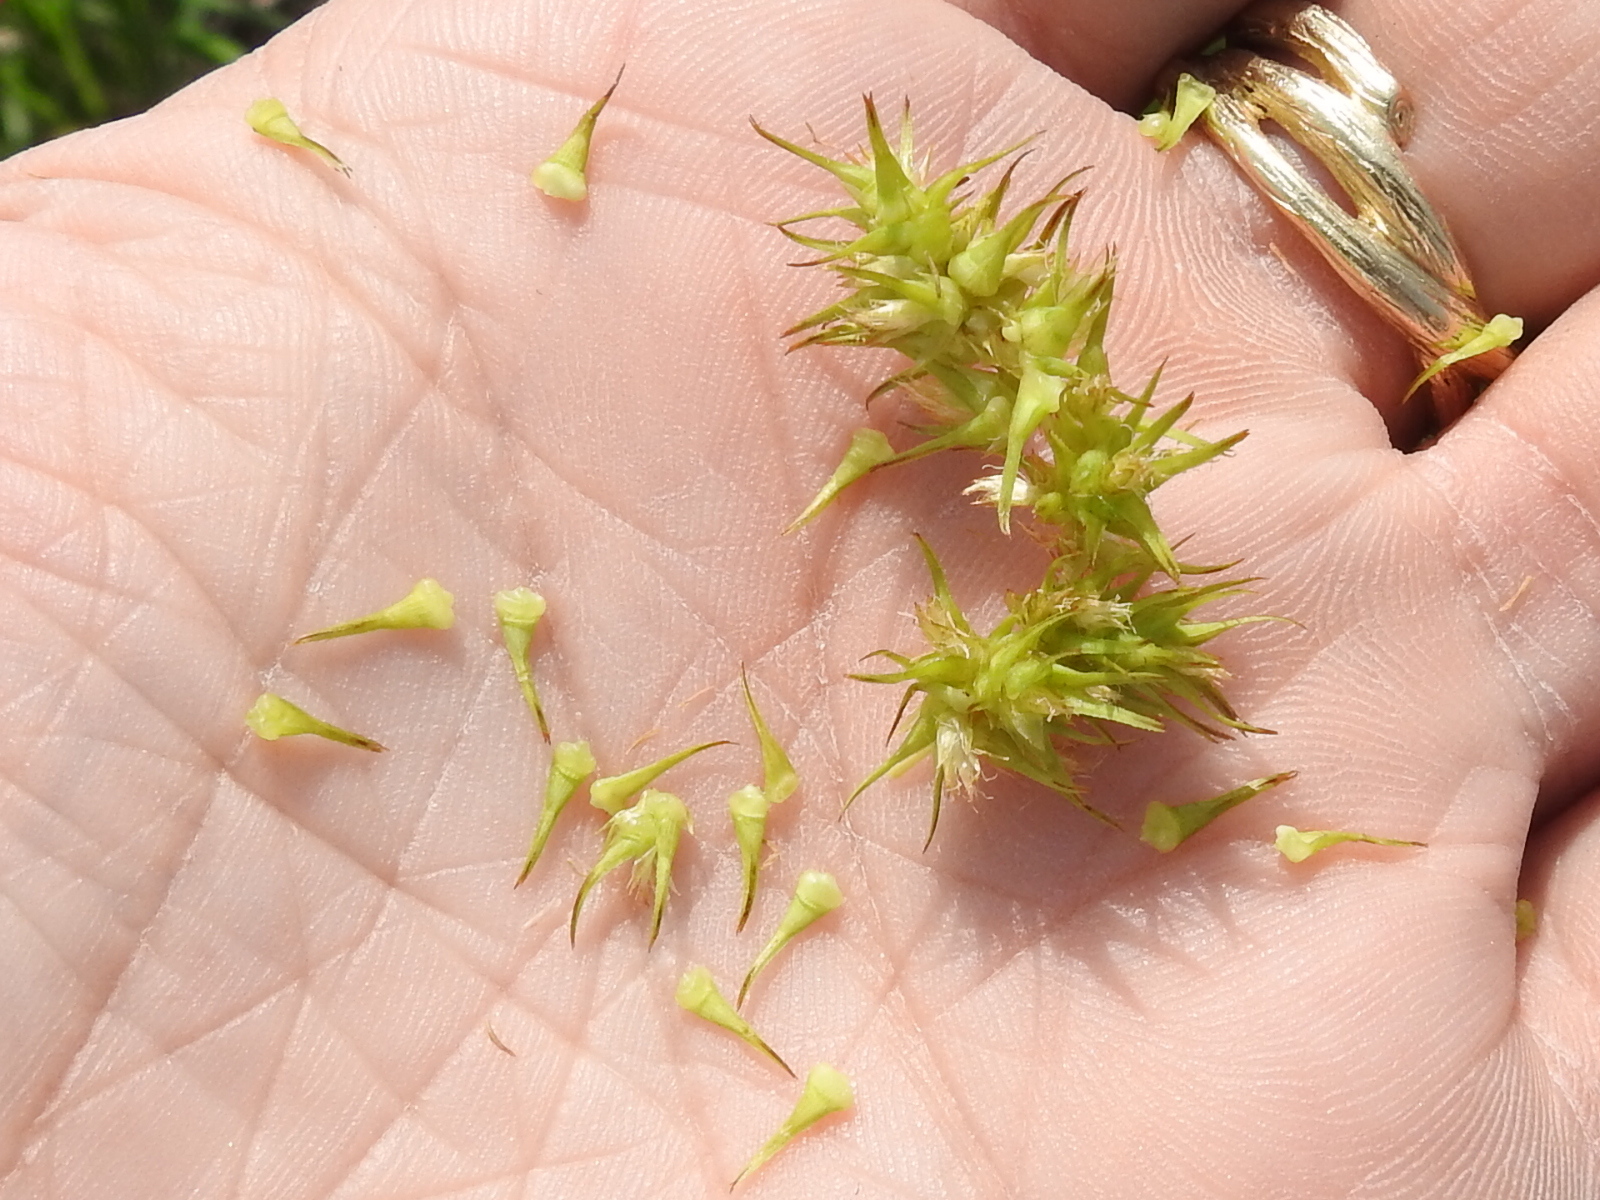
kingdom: Plantae
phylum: Tracheophyta
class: Liliopsida
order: Poales
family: Cyperaceae
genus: Carex
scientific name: Carex crus-corvi
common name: Crow-spur sedge
